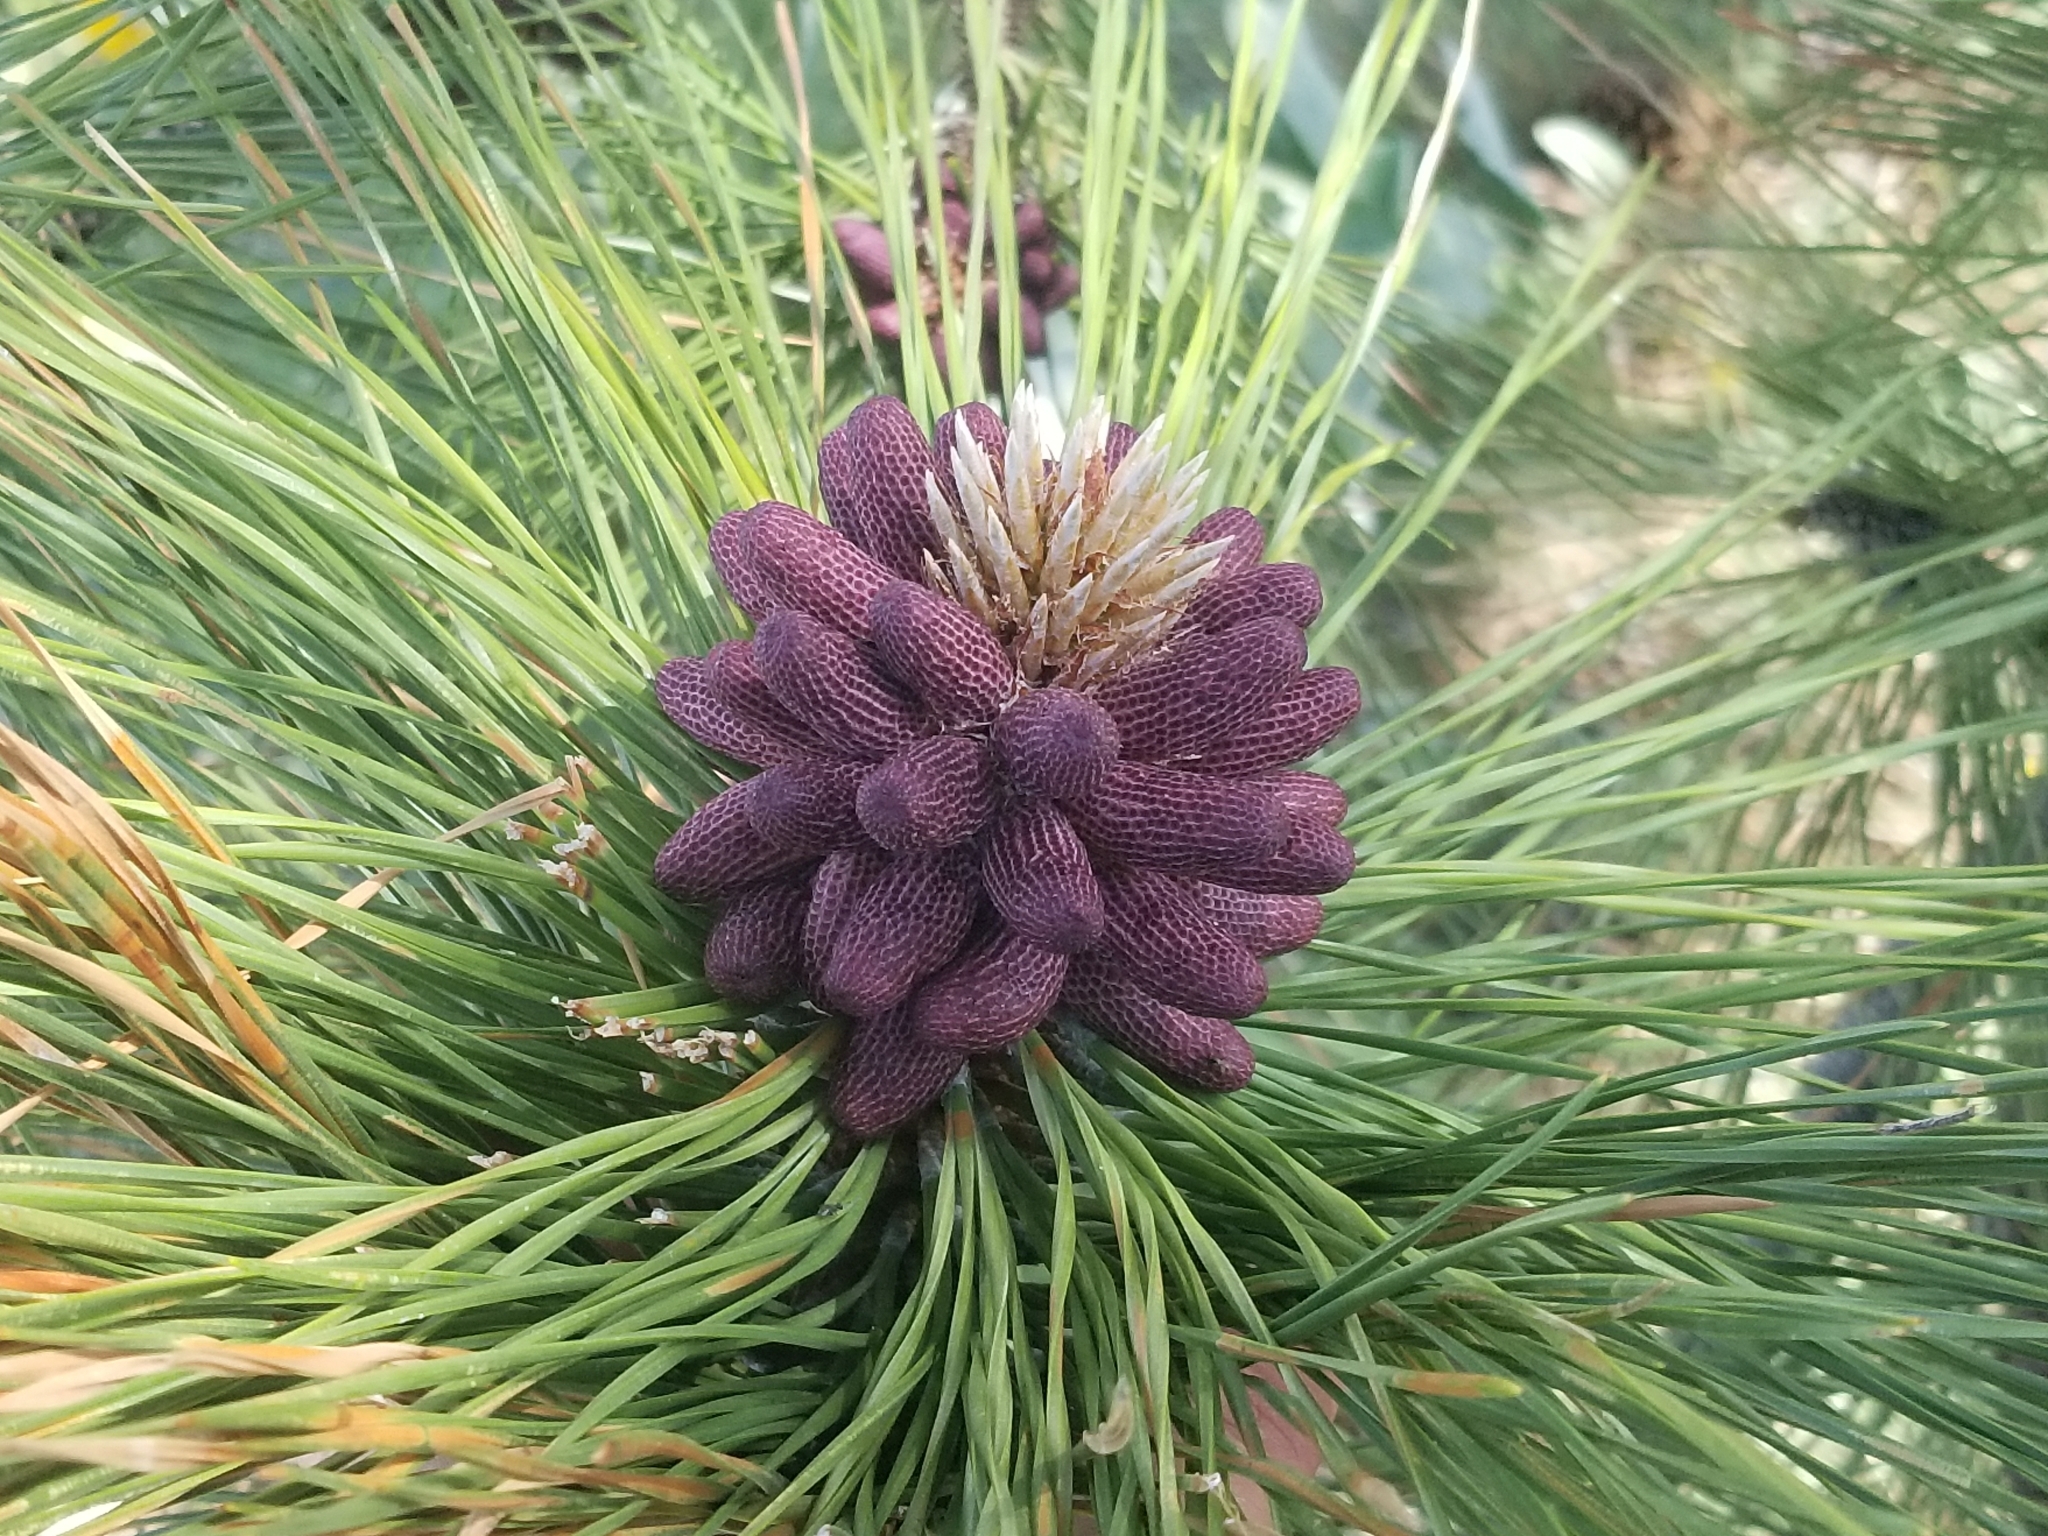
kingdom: Plantae
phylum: Tracheophyta
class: Pinopsida
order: Pinales
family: Pinaceae
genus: Pinus
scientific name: Pinus ponderosa
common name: Western yellow-pine
